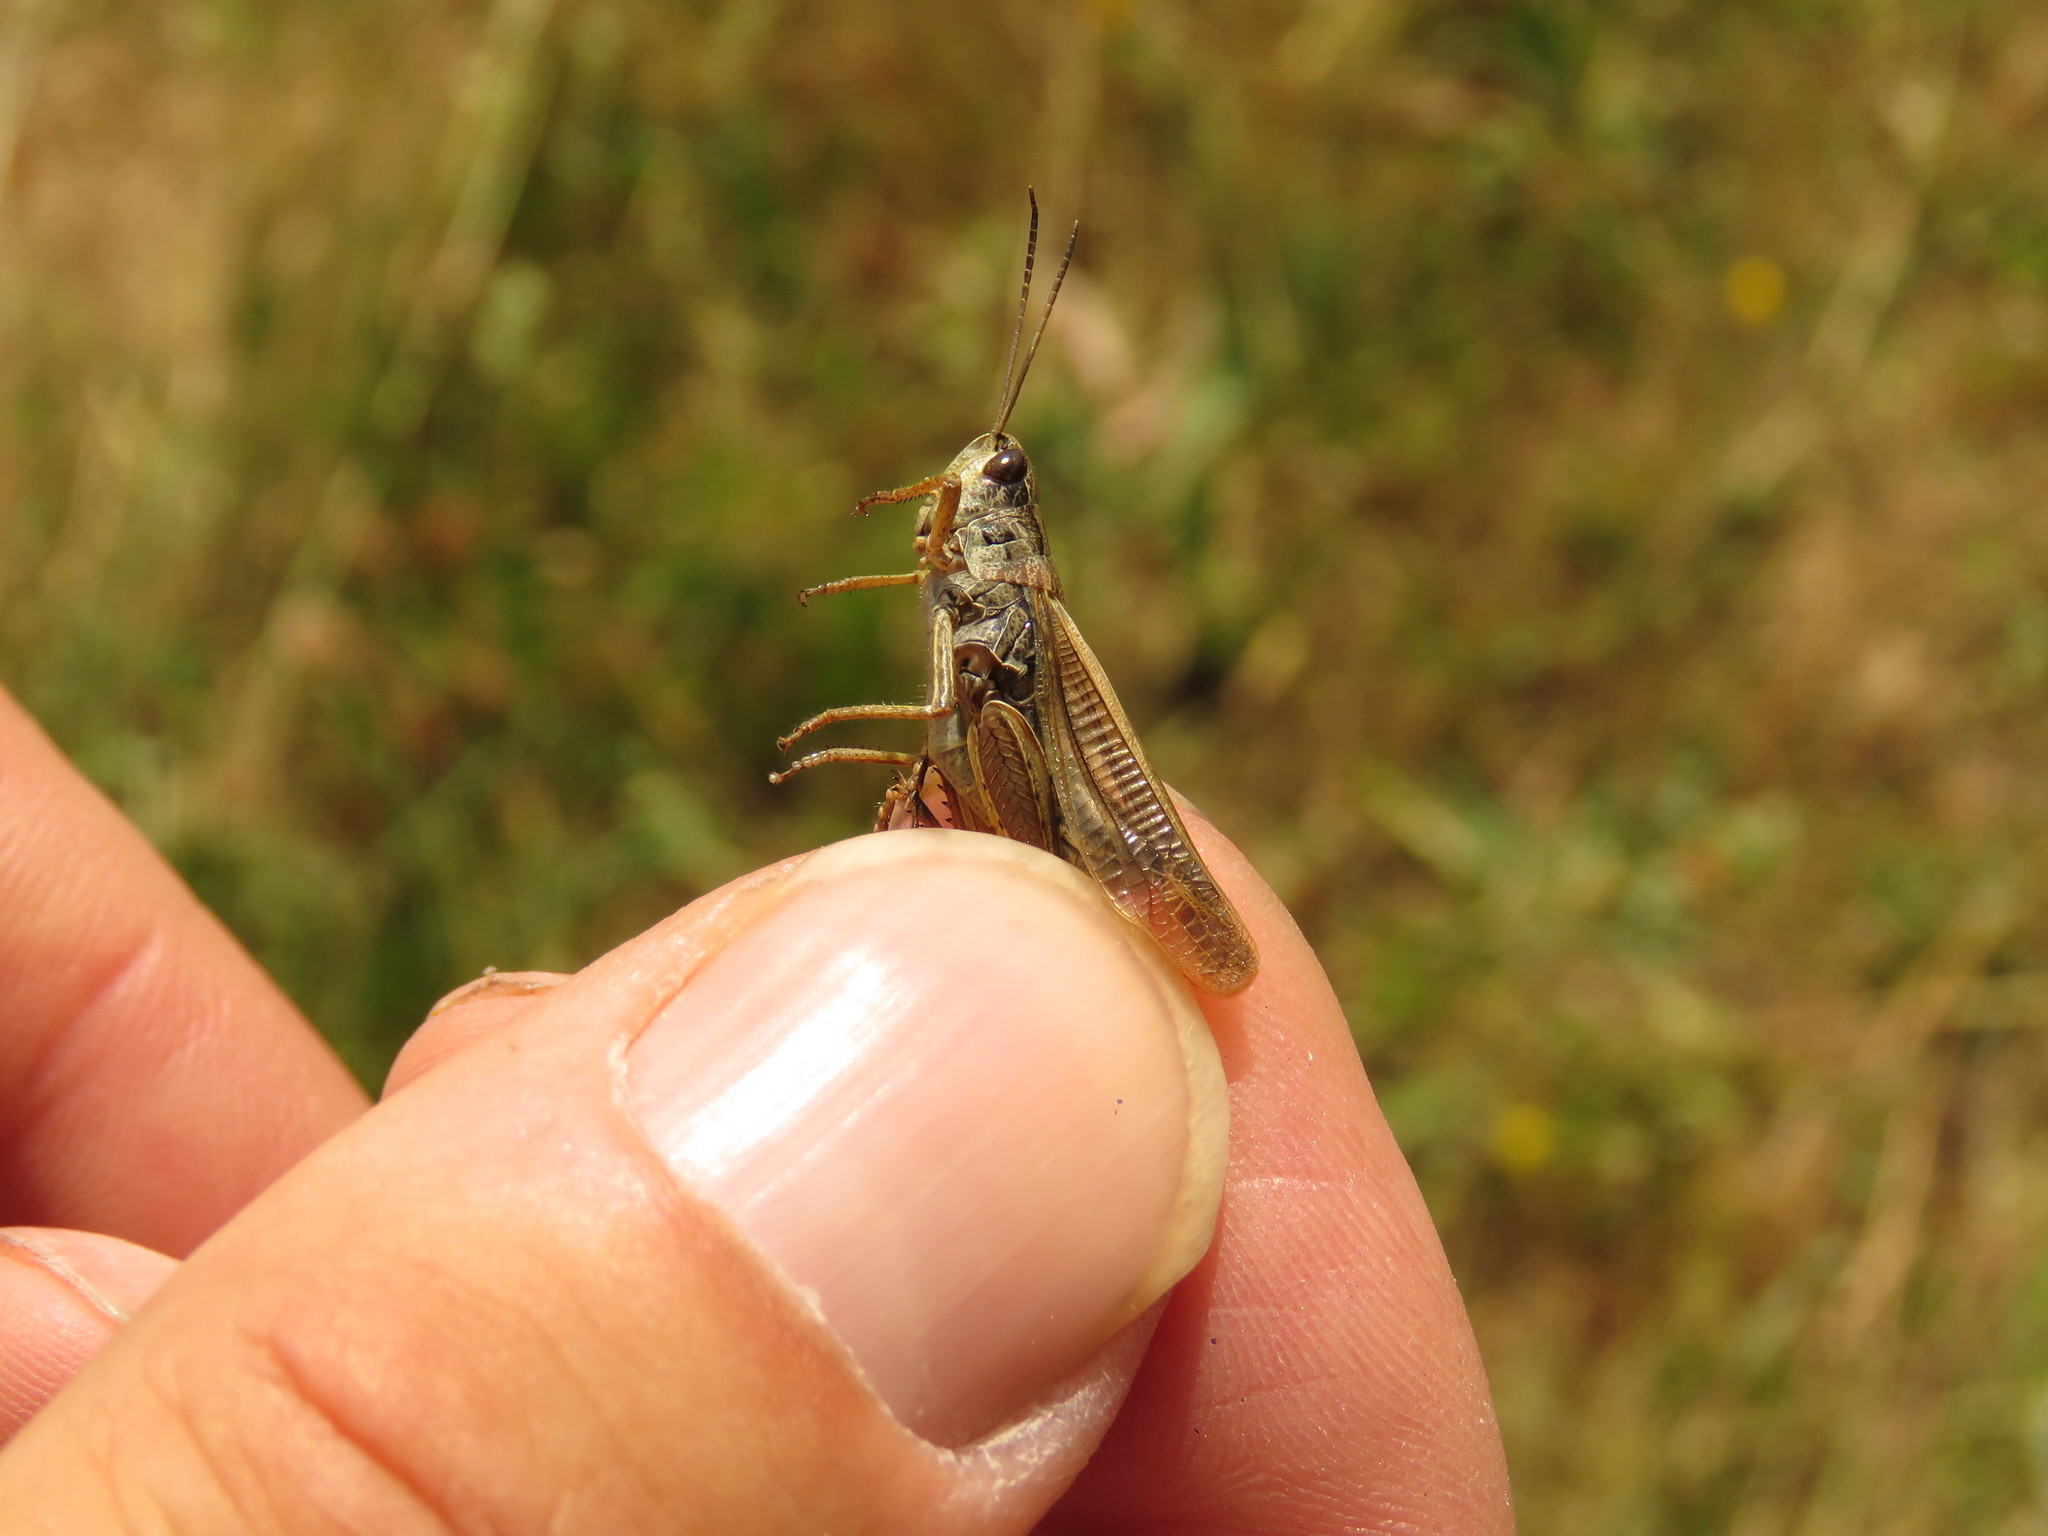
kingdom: Animalia
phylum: Arthropoda
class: Insecta
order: Orthoptera
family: Acrididae
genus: Stauroderus
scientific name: Stauroderus scalaris
